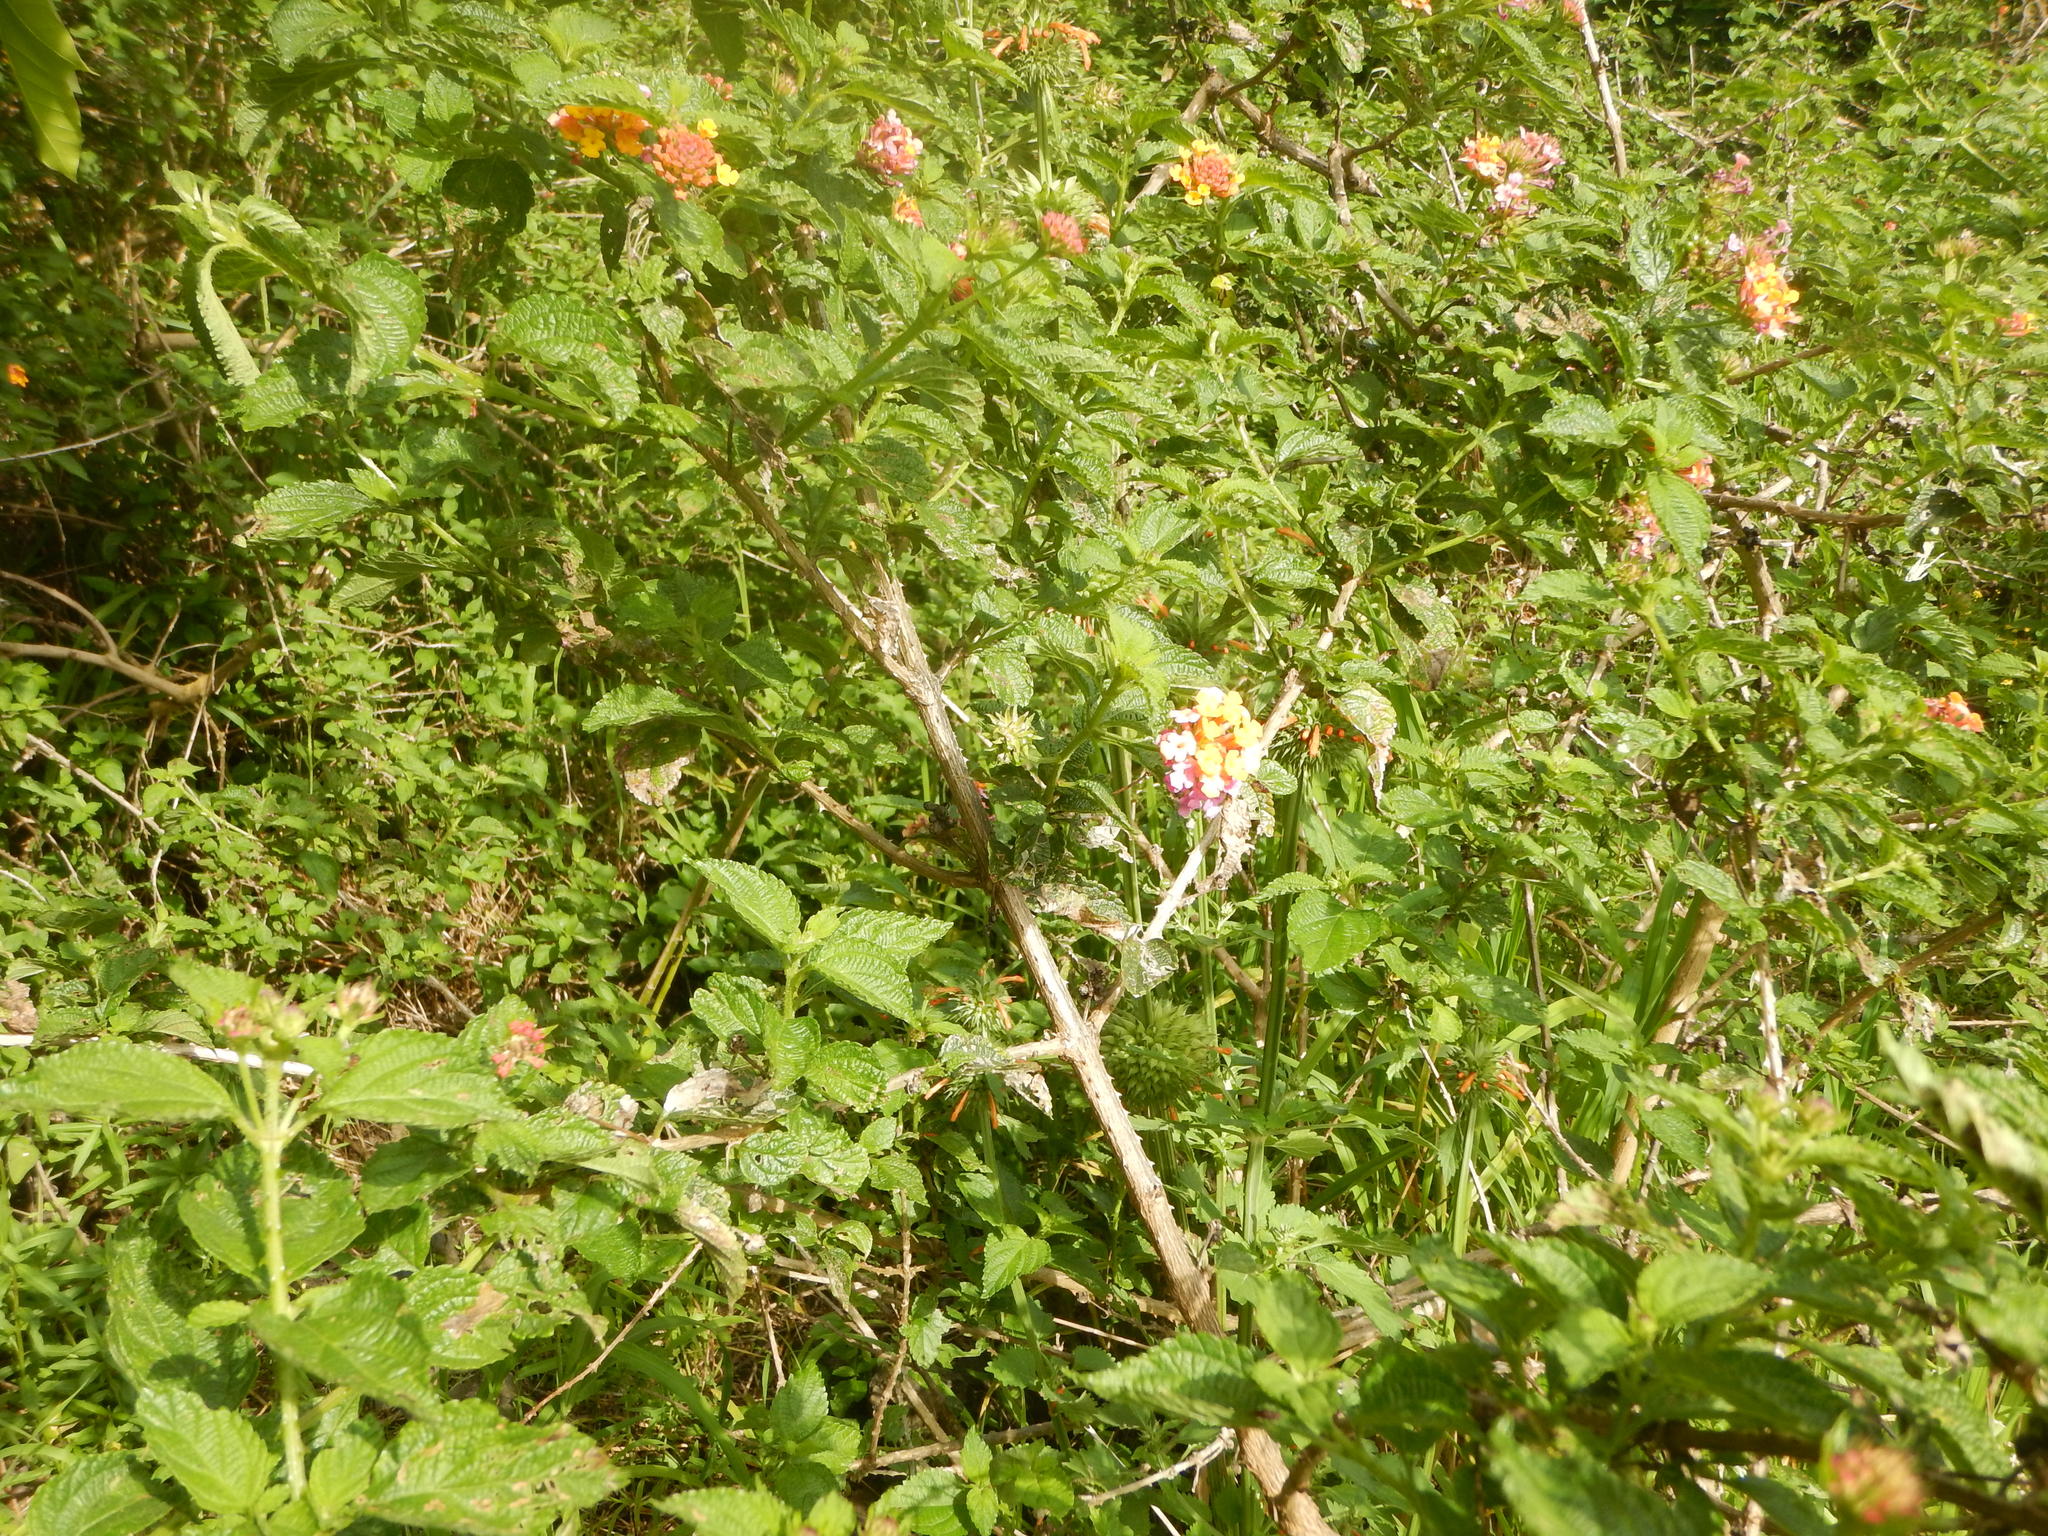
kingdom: Plantae
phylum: Tracheophyta
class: Magnoliopsida
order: Lamiales
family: Verbenaceae
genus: Lantana
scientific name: Lantana camara
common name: Lantana
